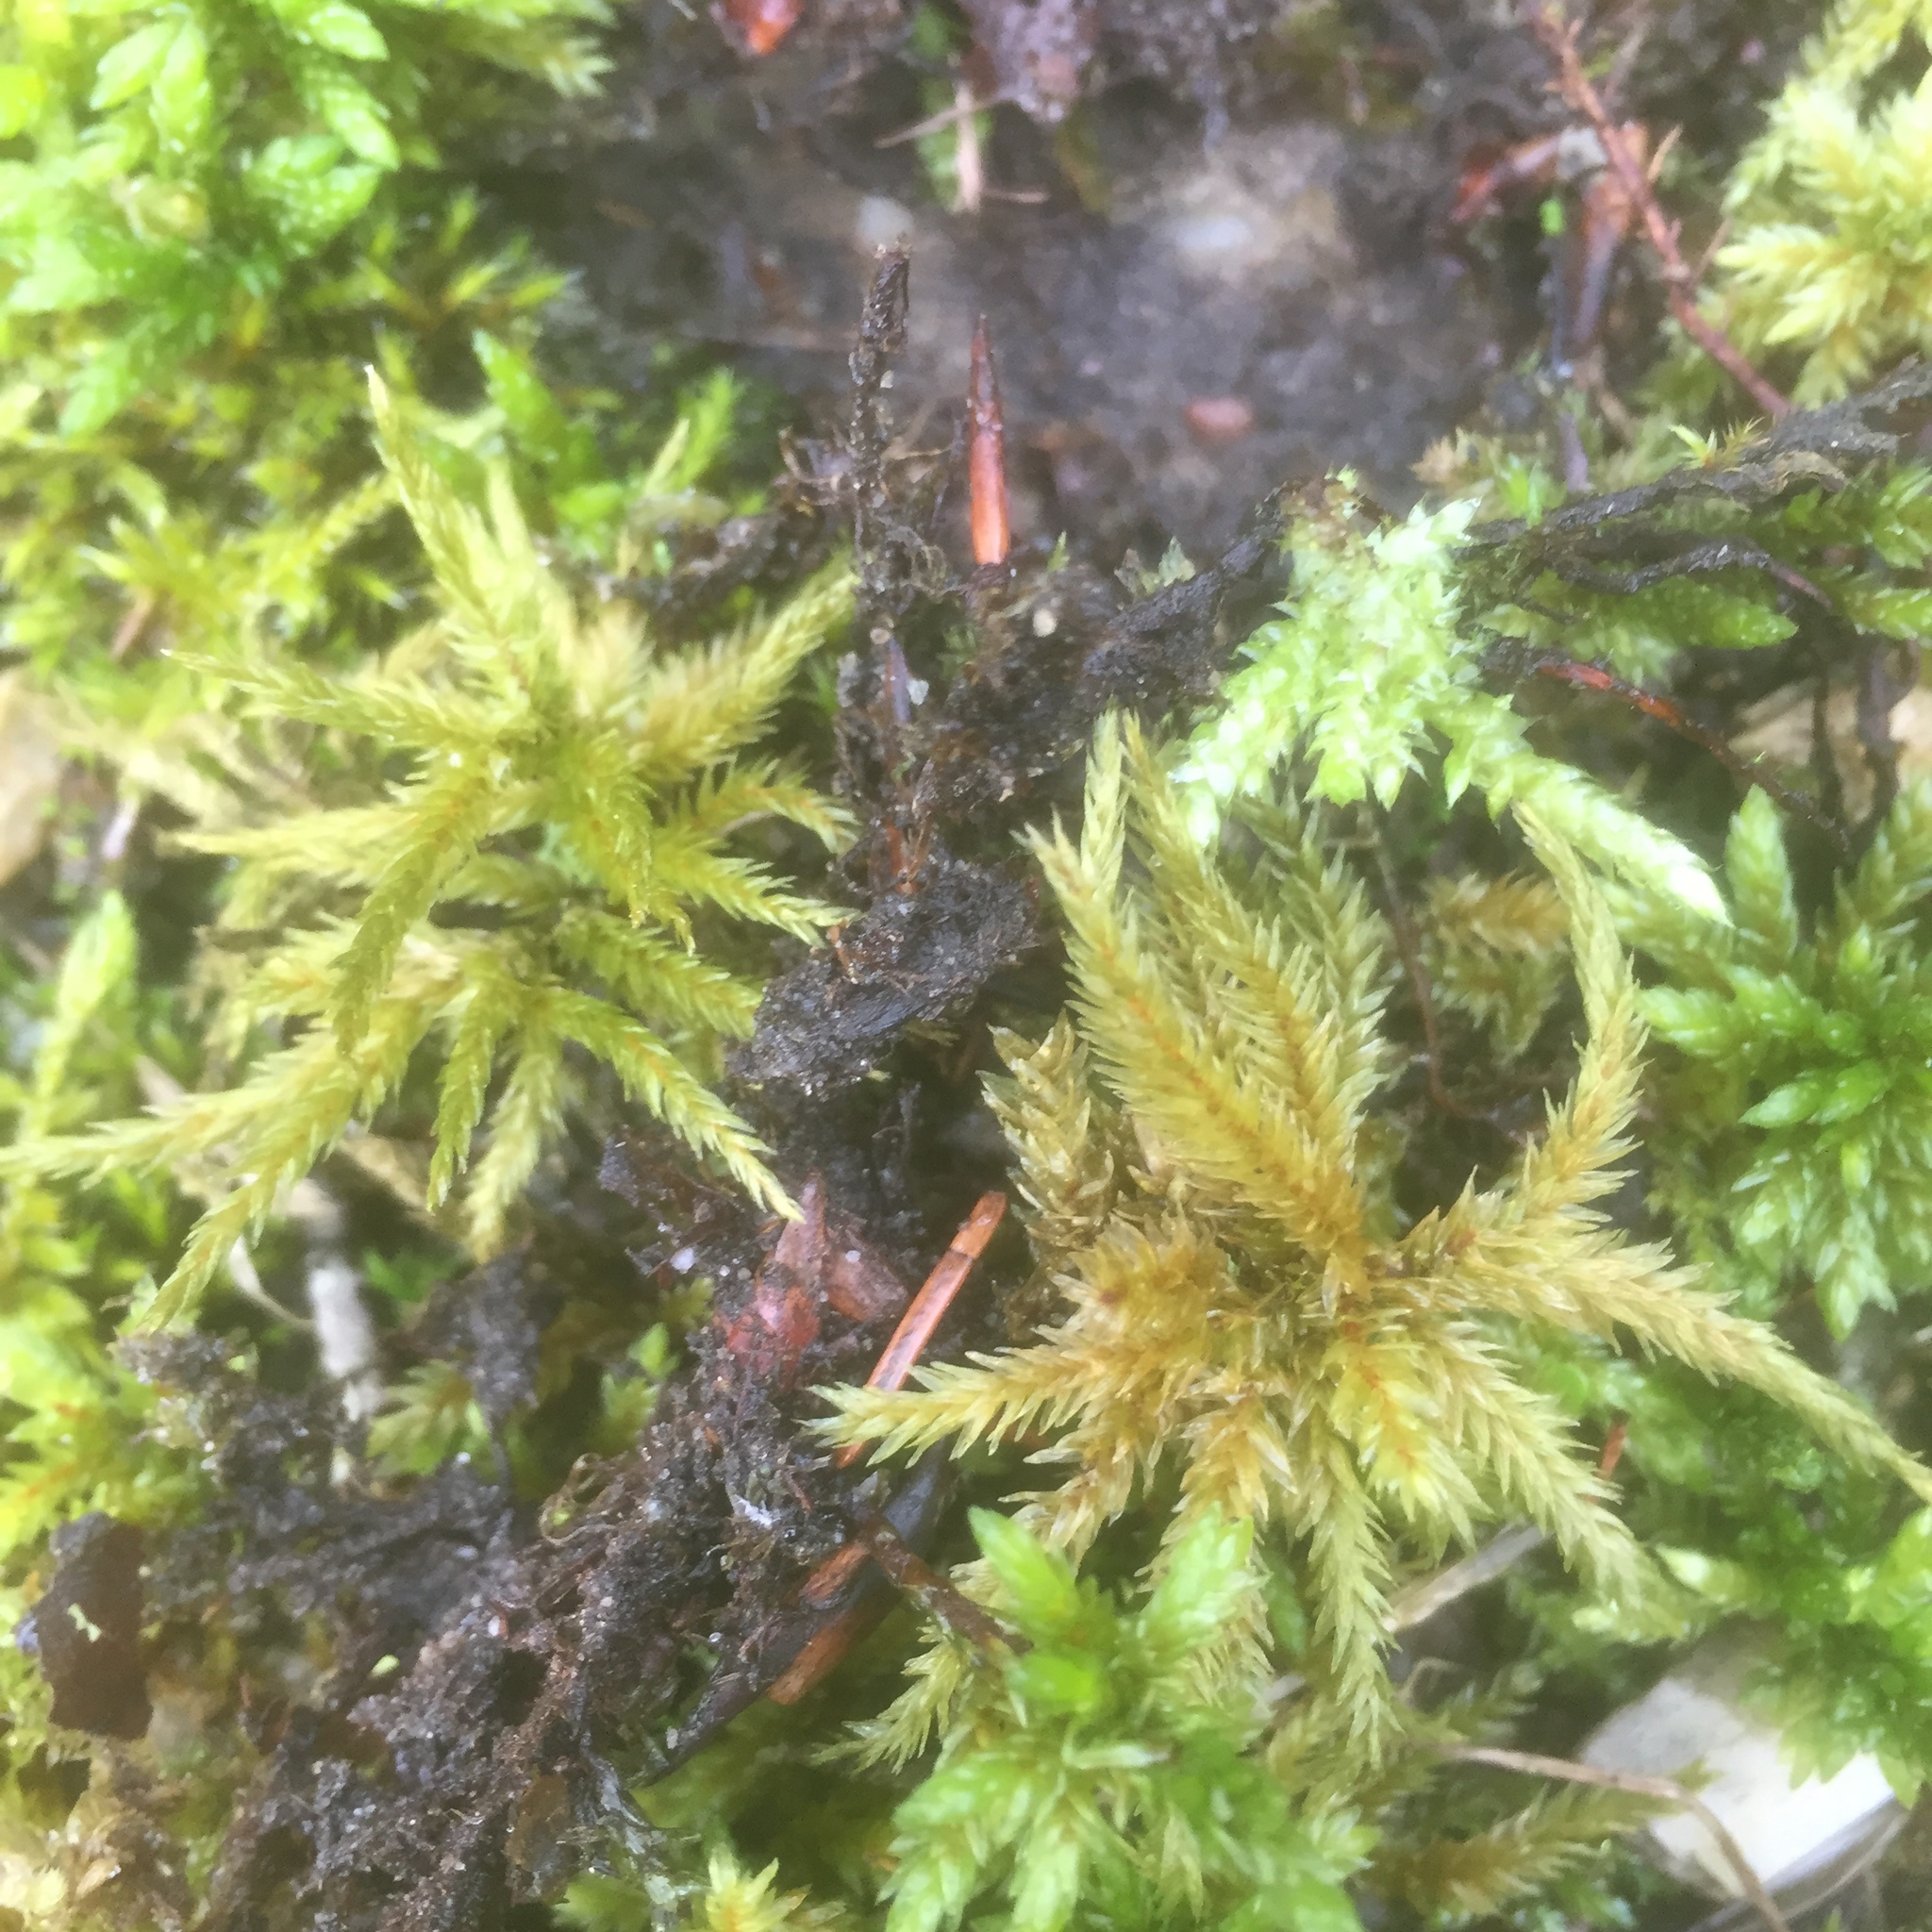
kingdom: Plantae
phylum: Bryophyta
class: Bryopsida
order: Hypnales
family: Climaciaceae
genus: Climacium
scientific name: Climacium dendroides
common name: Northern tree moss
